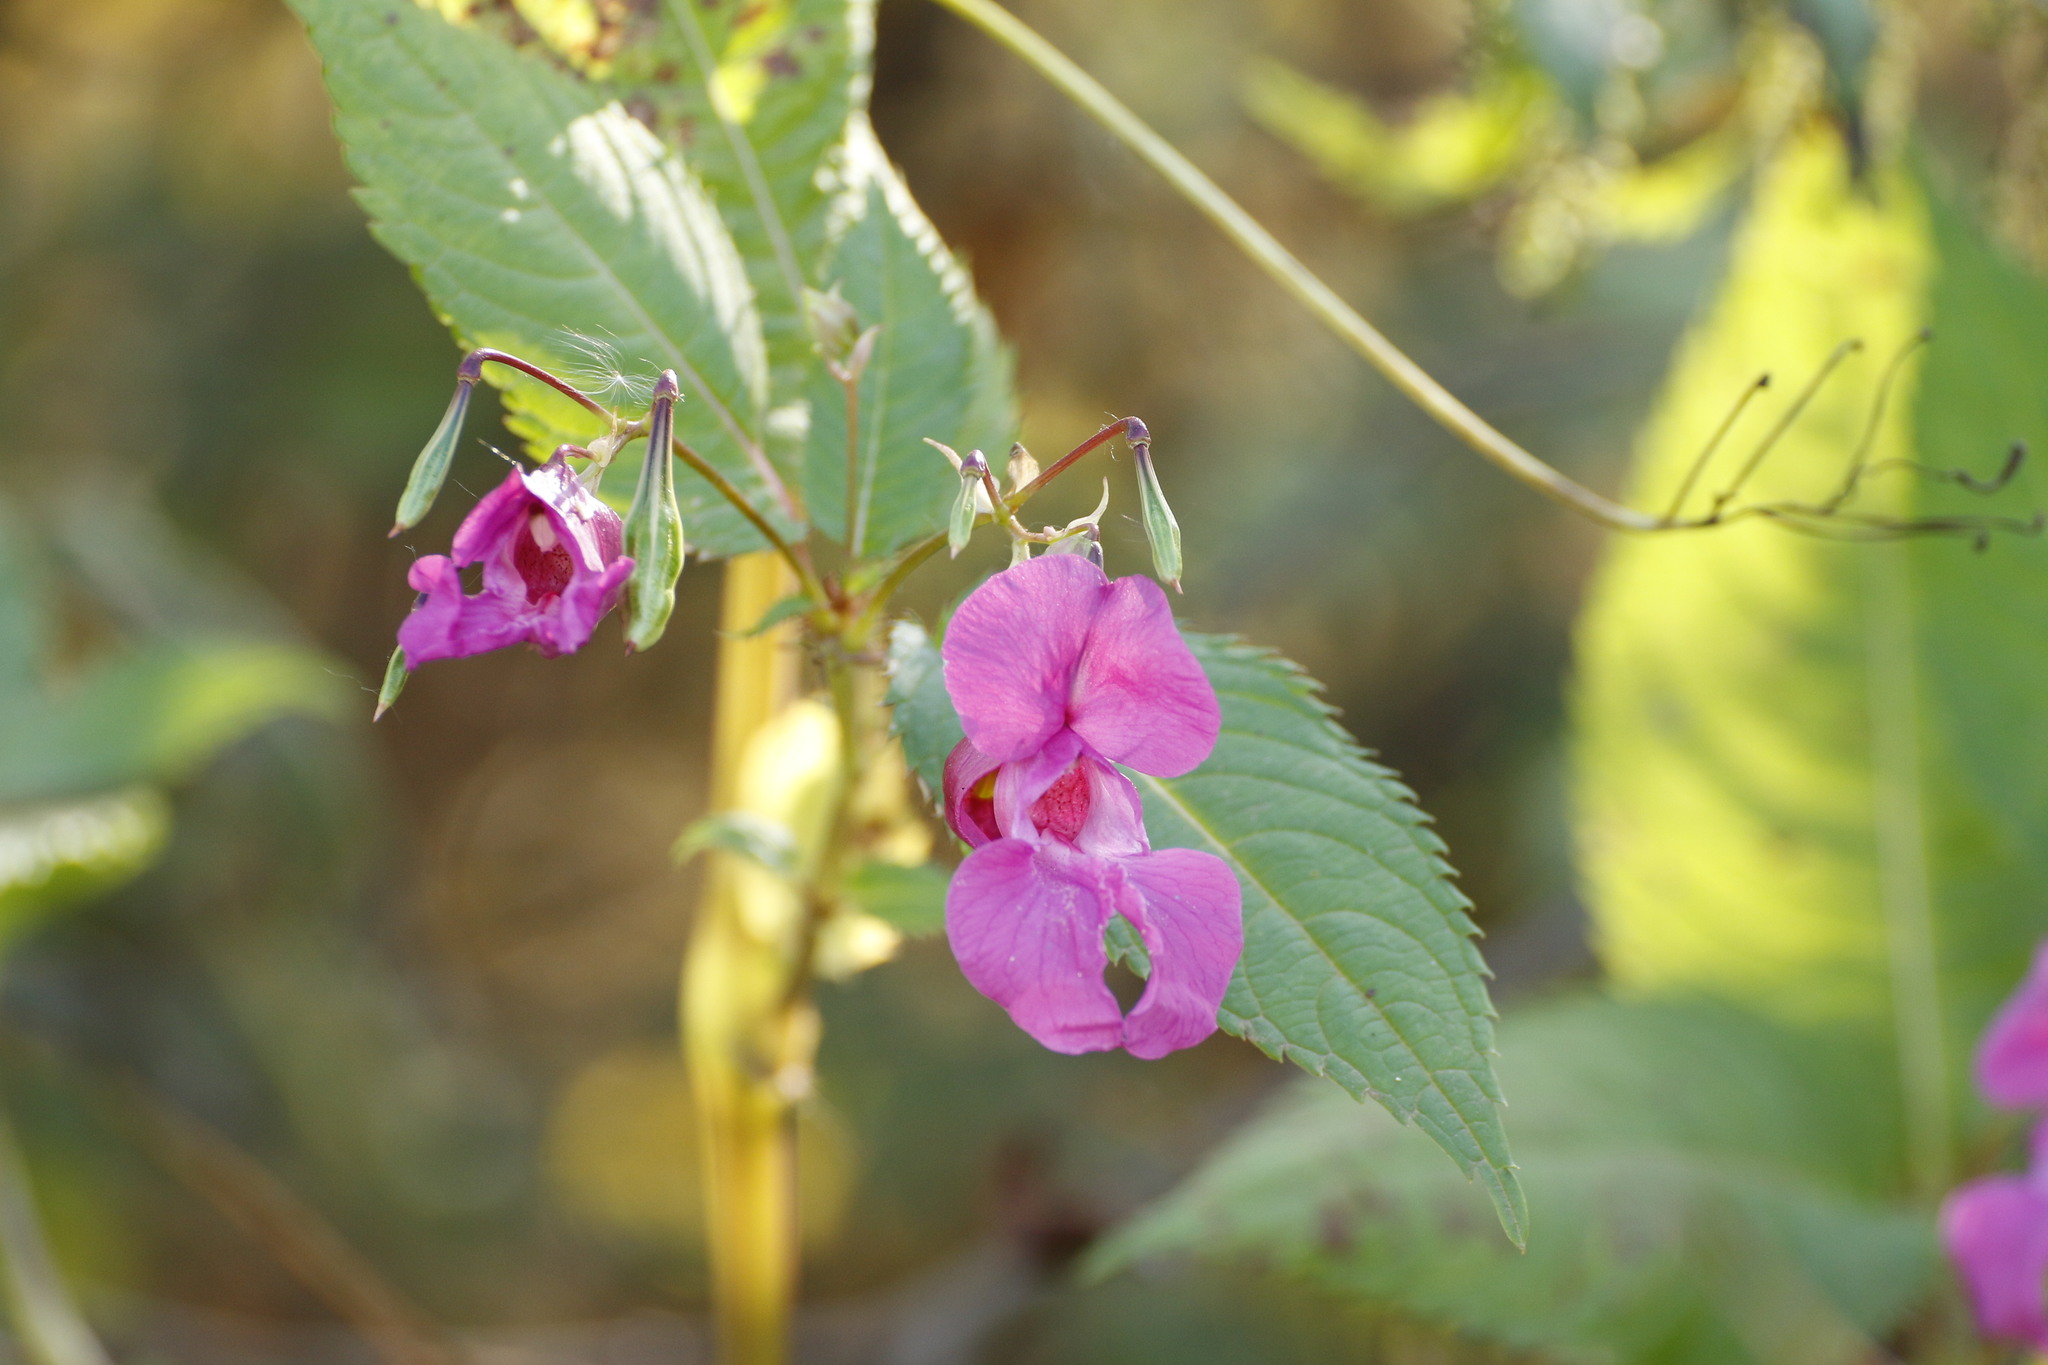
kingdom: Plantae
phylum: Tracheophyta
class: Magnoliopsida
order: Ericales
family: Balsaminaceae
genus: Impatiens
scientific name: Impatiens glandulifera
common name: Himalayan balsam
